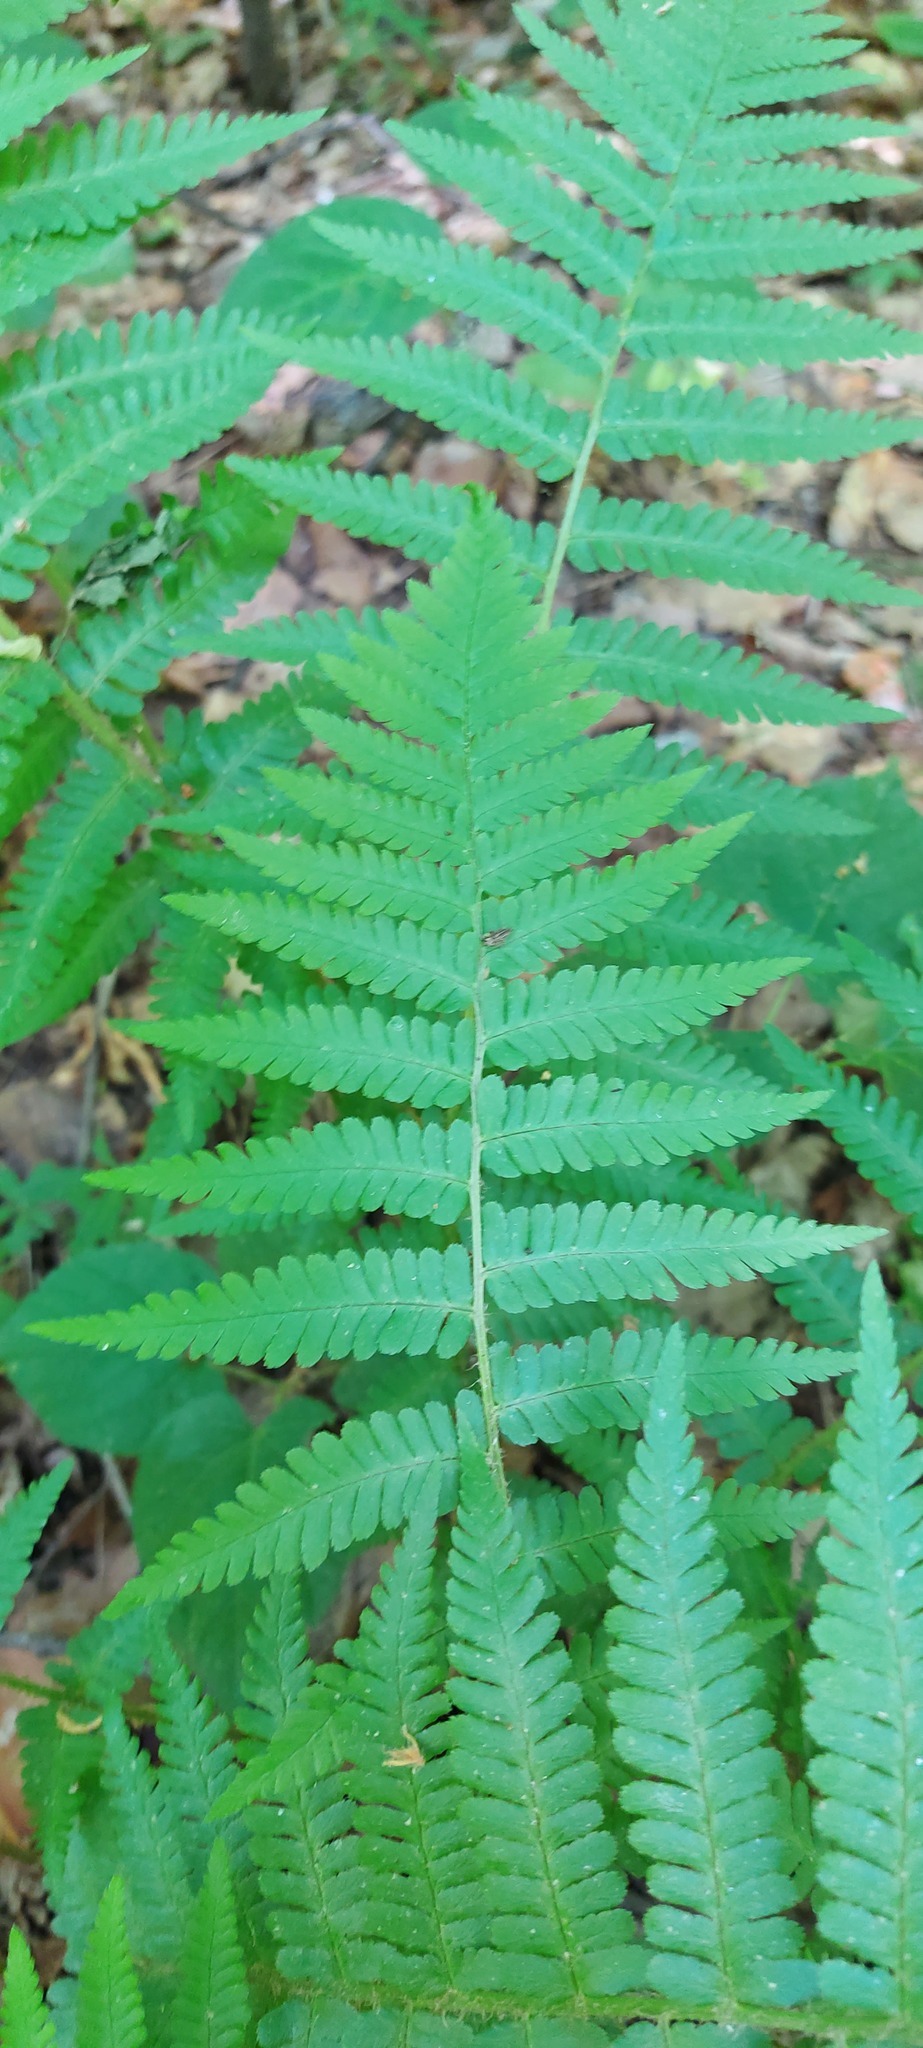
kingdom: Plantae
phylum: Tracheophyta
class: Polypodiopsida
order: Polypodiales
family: Dryopteridaceae
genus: Dryopteris
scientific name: Dryopteris filix-mas
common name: Male fern
